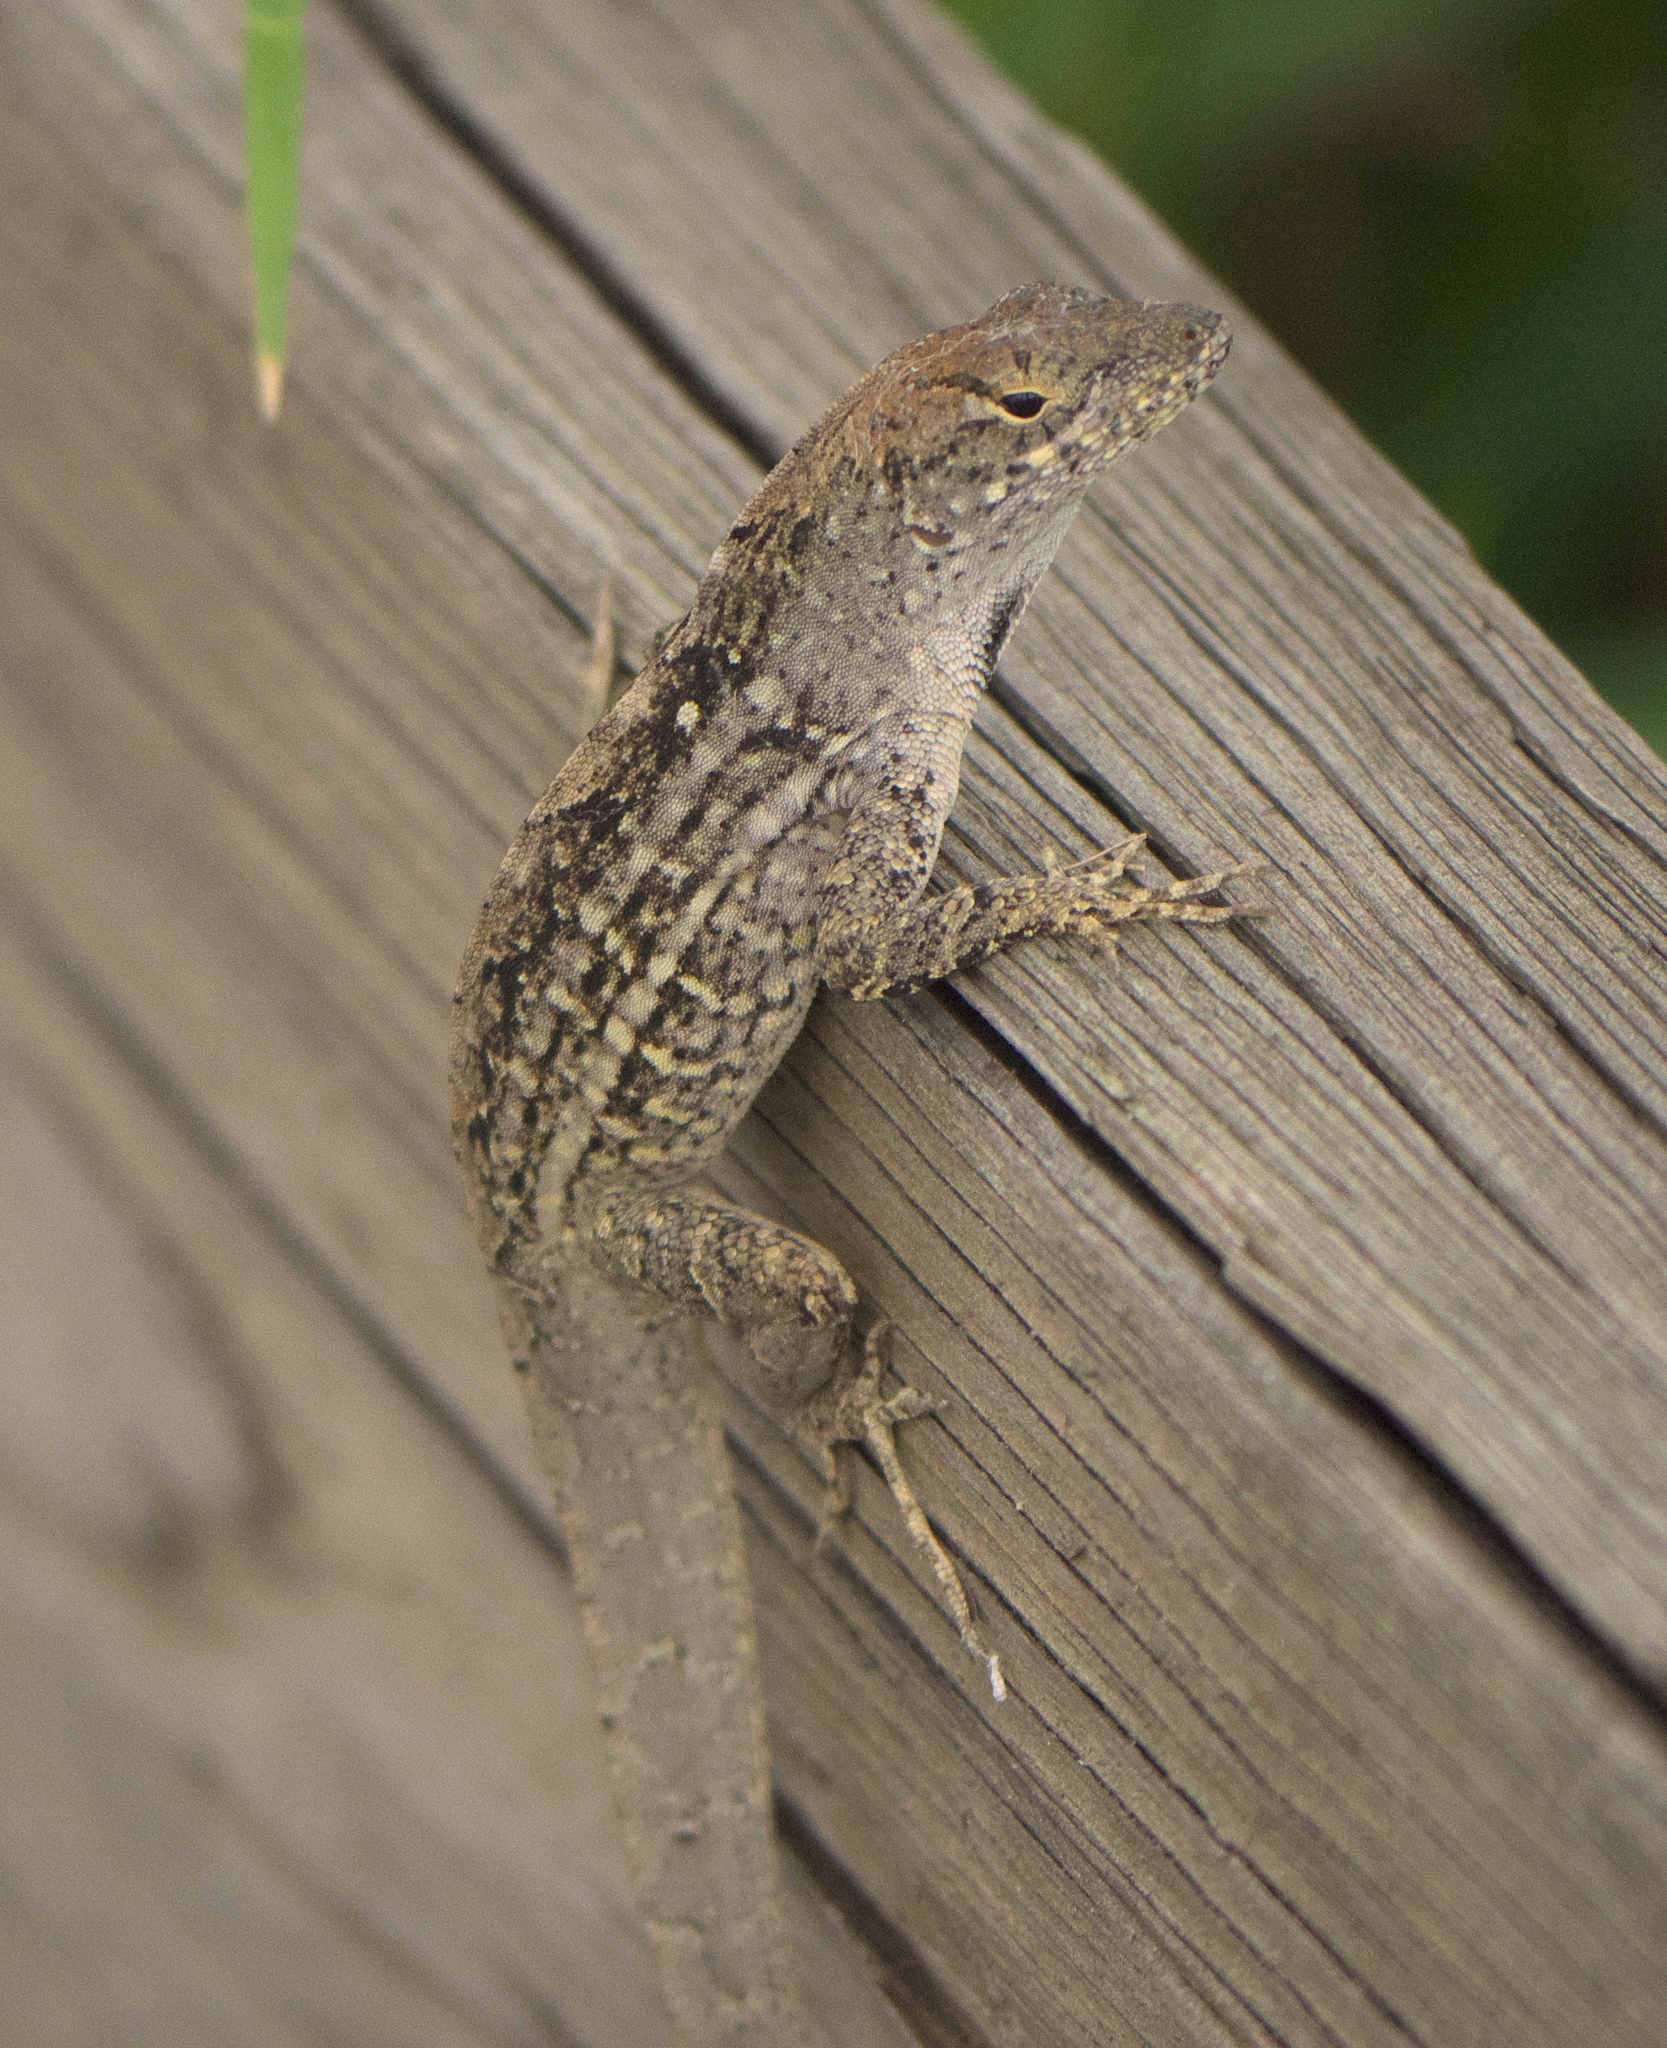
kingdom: Animalia
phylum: Chordata
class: Squamata
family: Dactyloidae
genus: Anolis
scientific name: Anolis sagrei
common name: Brown anole
